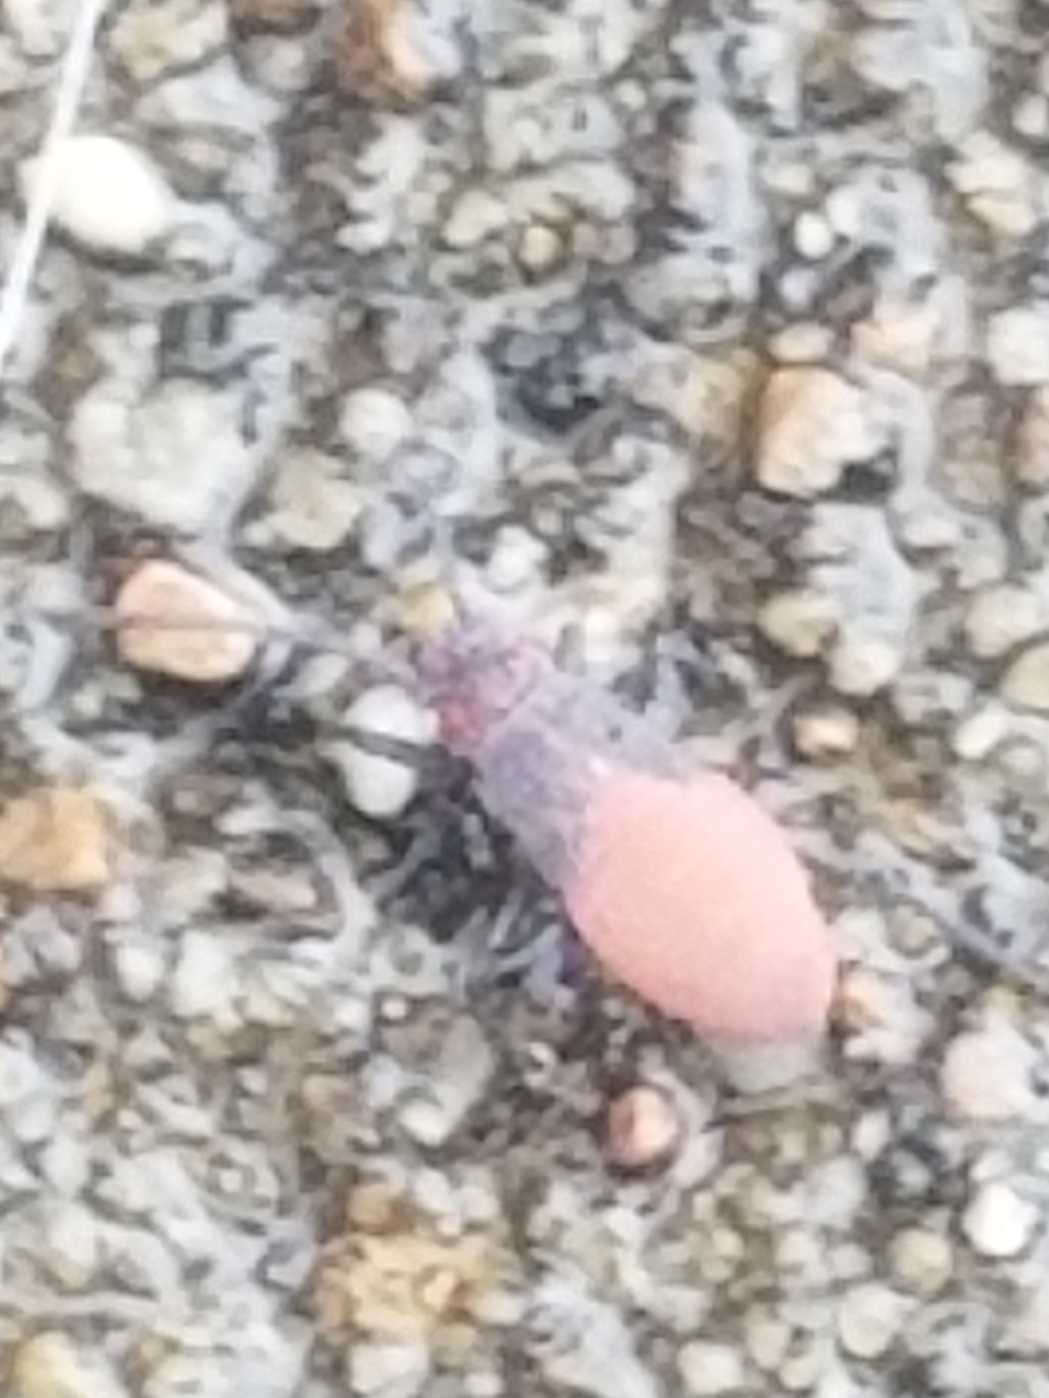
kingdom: Animalia
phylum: Arthropoda
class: Insecta
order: Hemiptera
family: Rhopalidae
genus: Jadera
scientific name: Jadera haematoloma
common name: Red-shouldered bug
